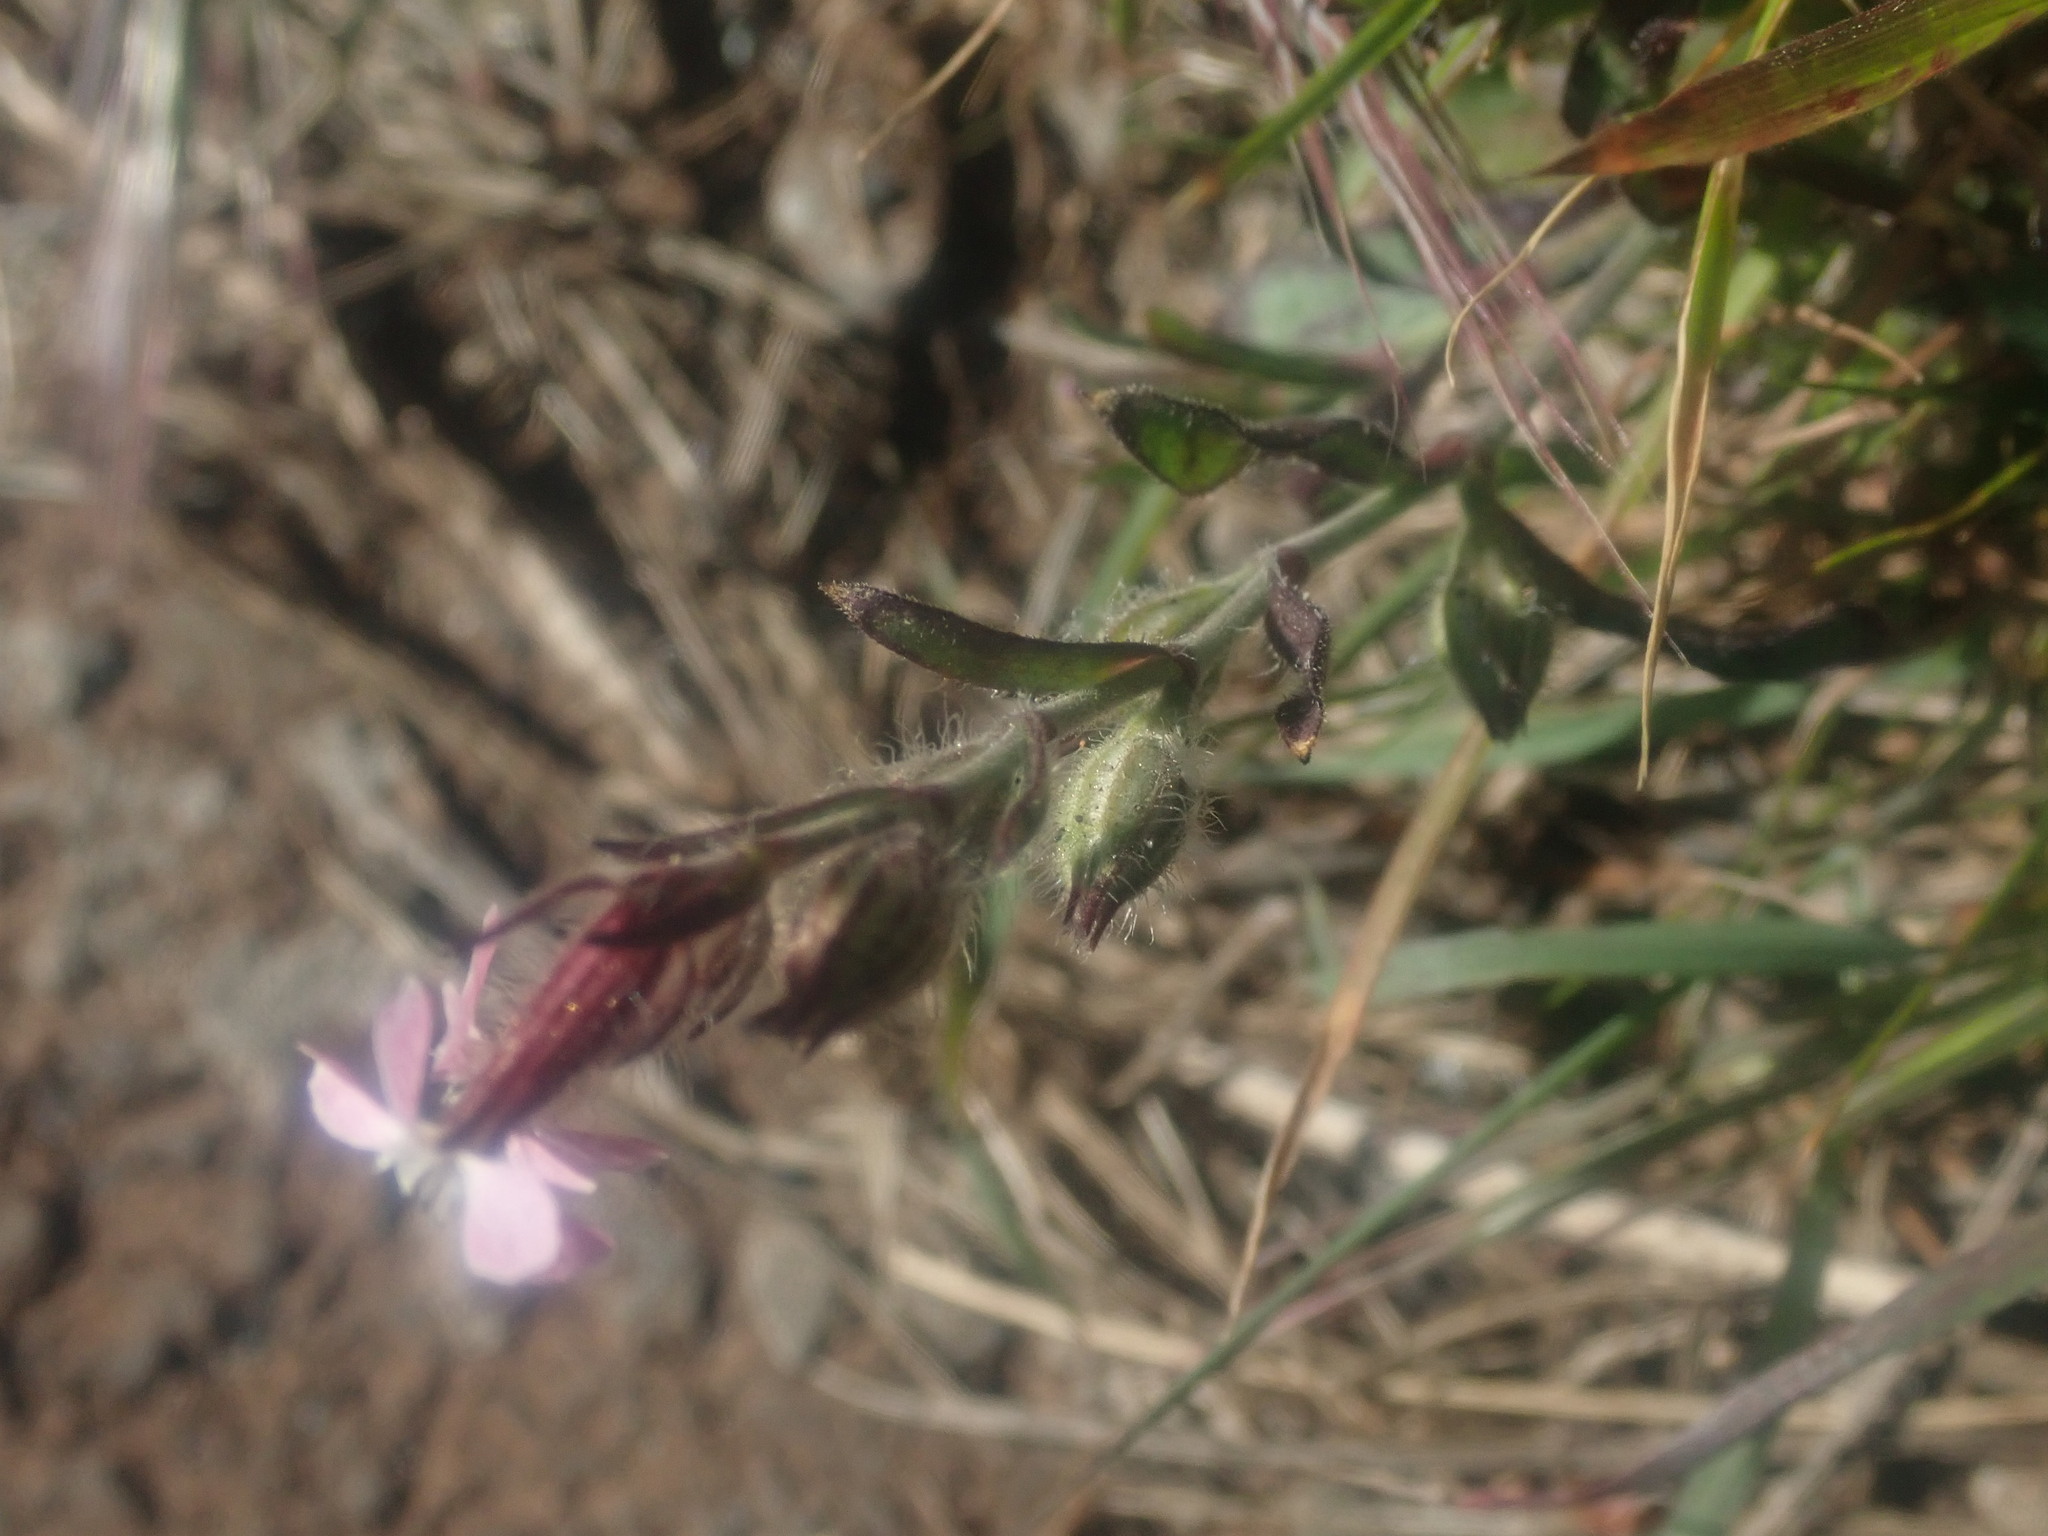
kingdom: Plantae
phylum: Tracheophyta
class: Magnoliopsida
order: Caryophyllales
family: Caryophyllaceae
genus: Silene
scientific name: Silene gallica
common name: Small-flowered catchfly
